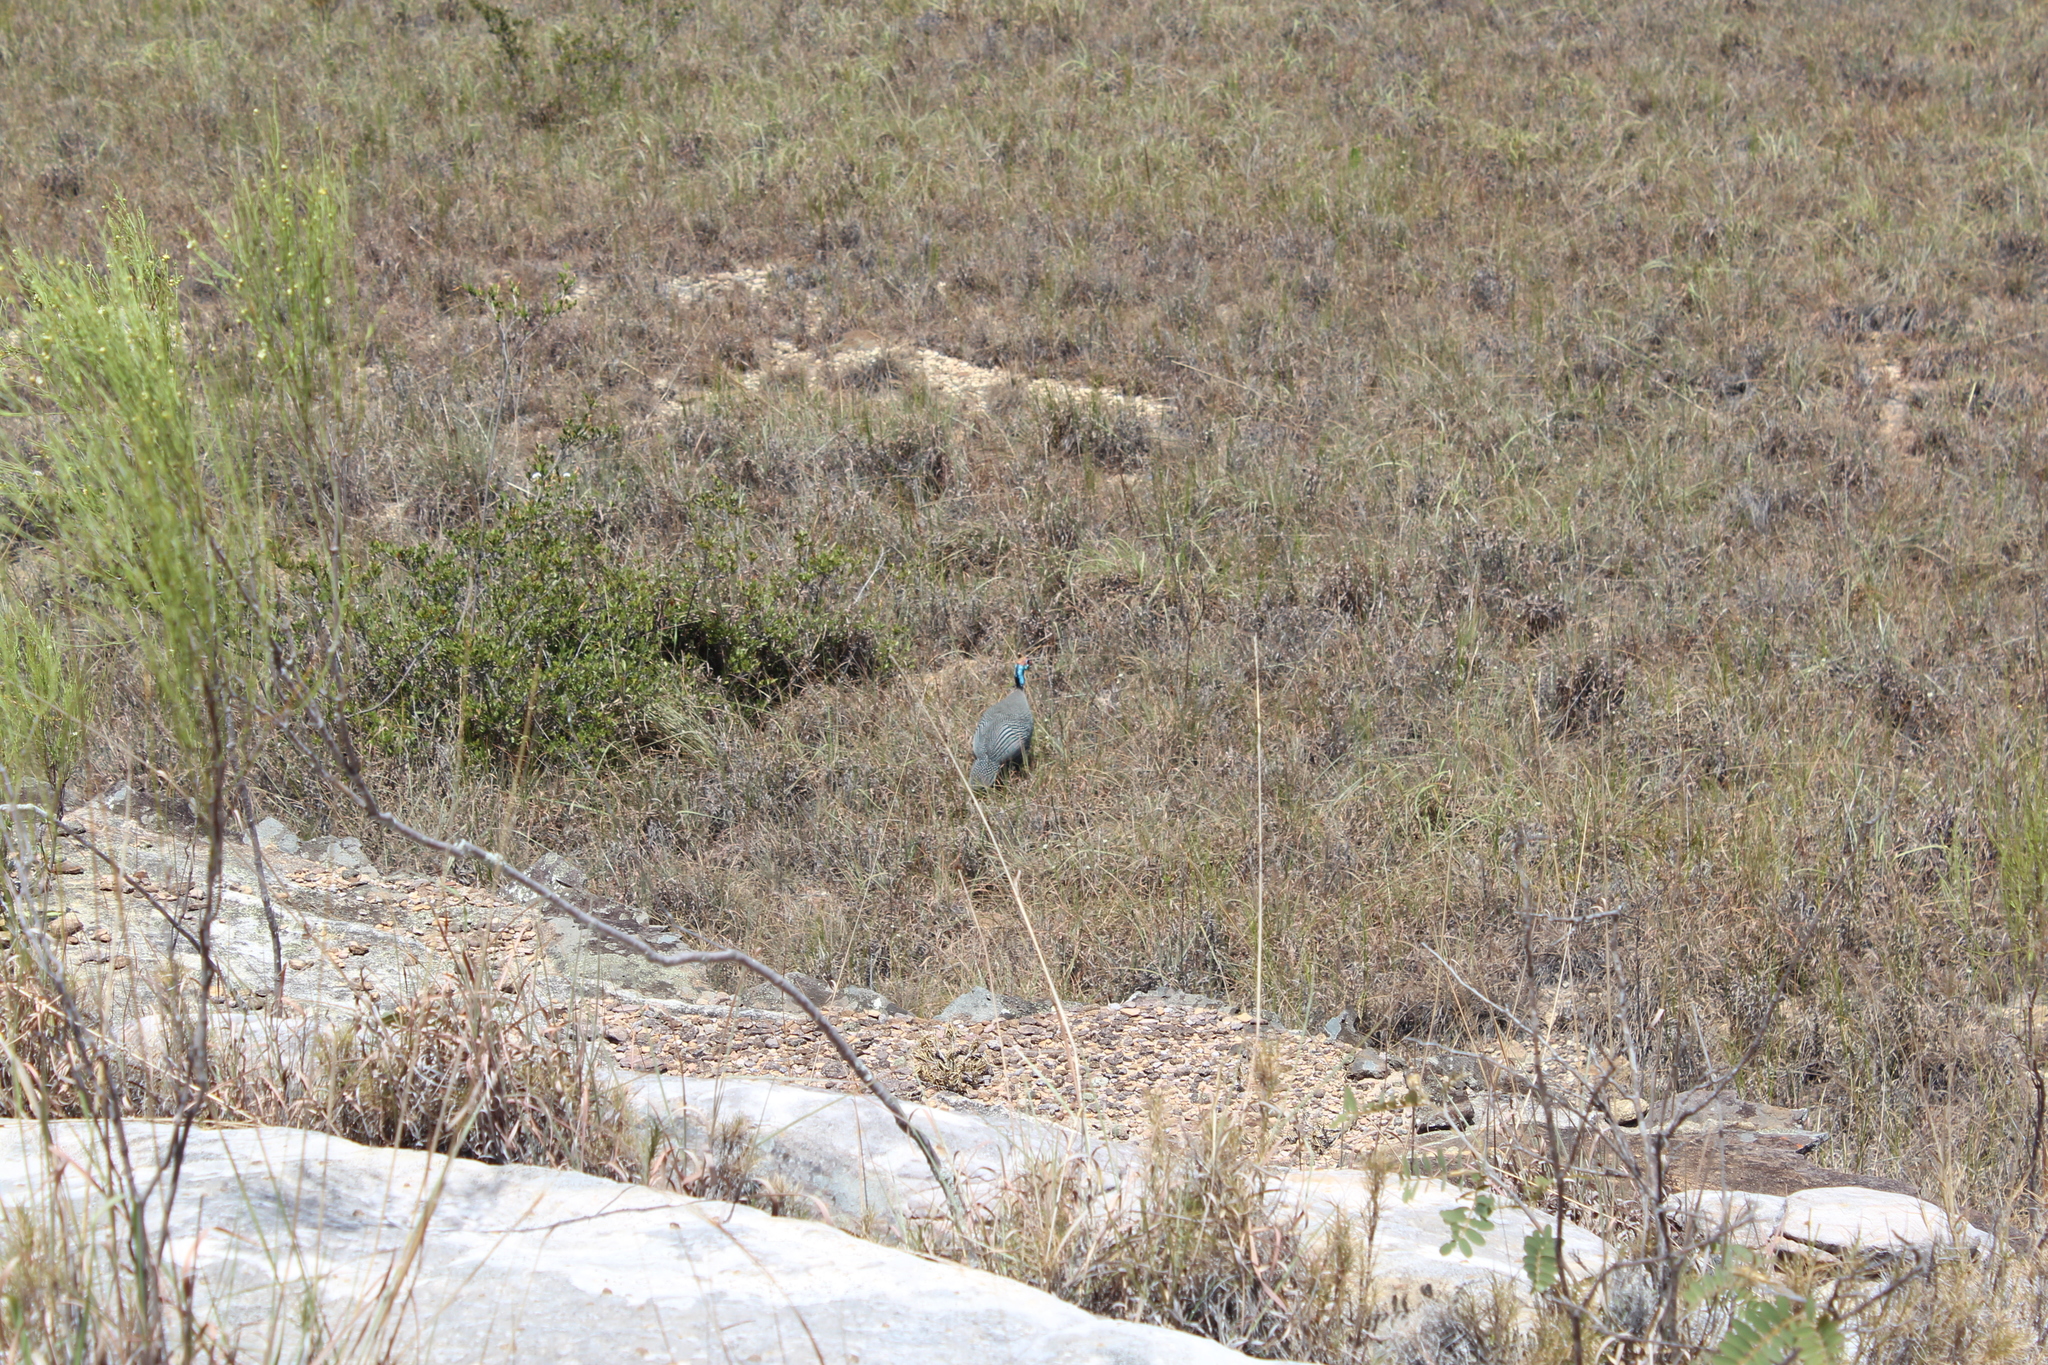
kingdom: Animalia
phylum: Chordata
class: Aves
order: Galliformes
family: Numididae
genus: Numida
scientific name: Numida meleagris
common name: Helmeted guineafowl
